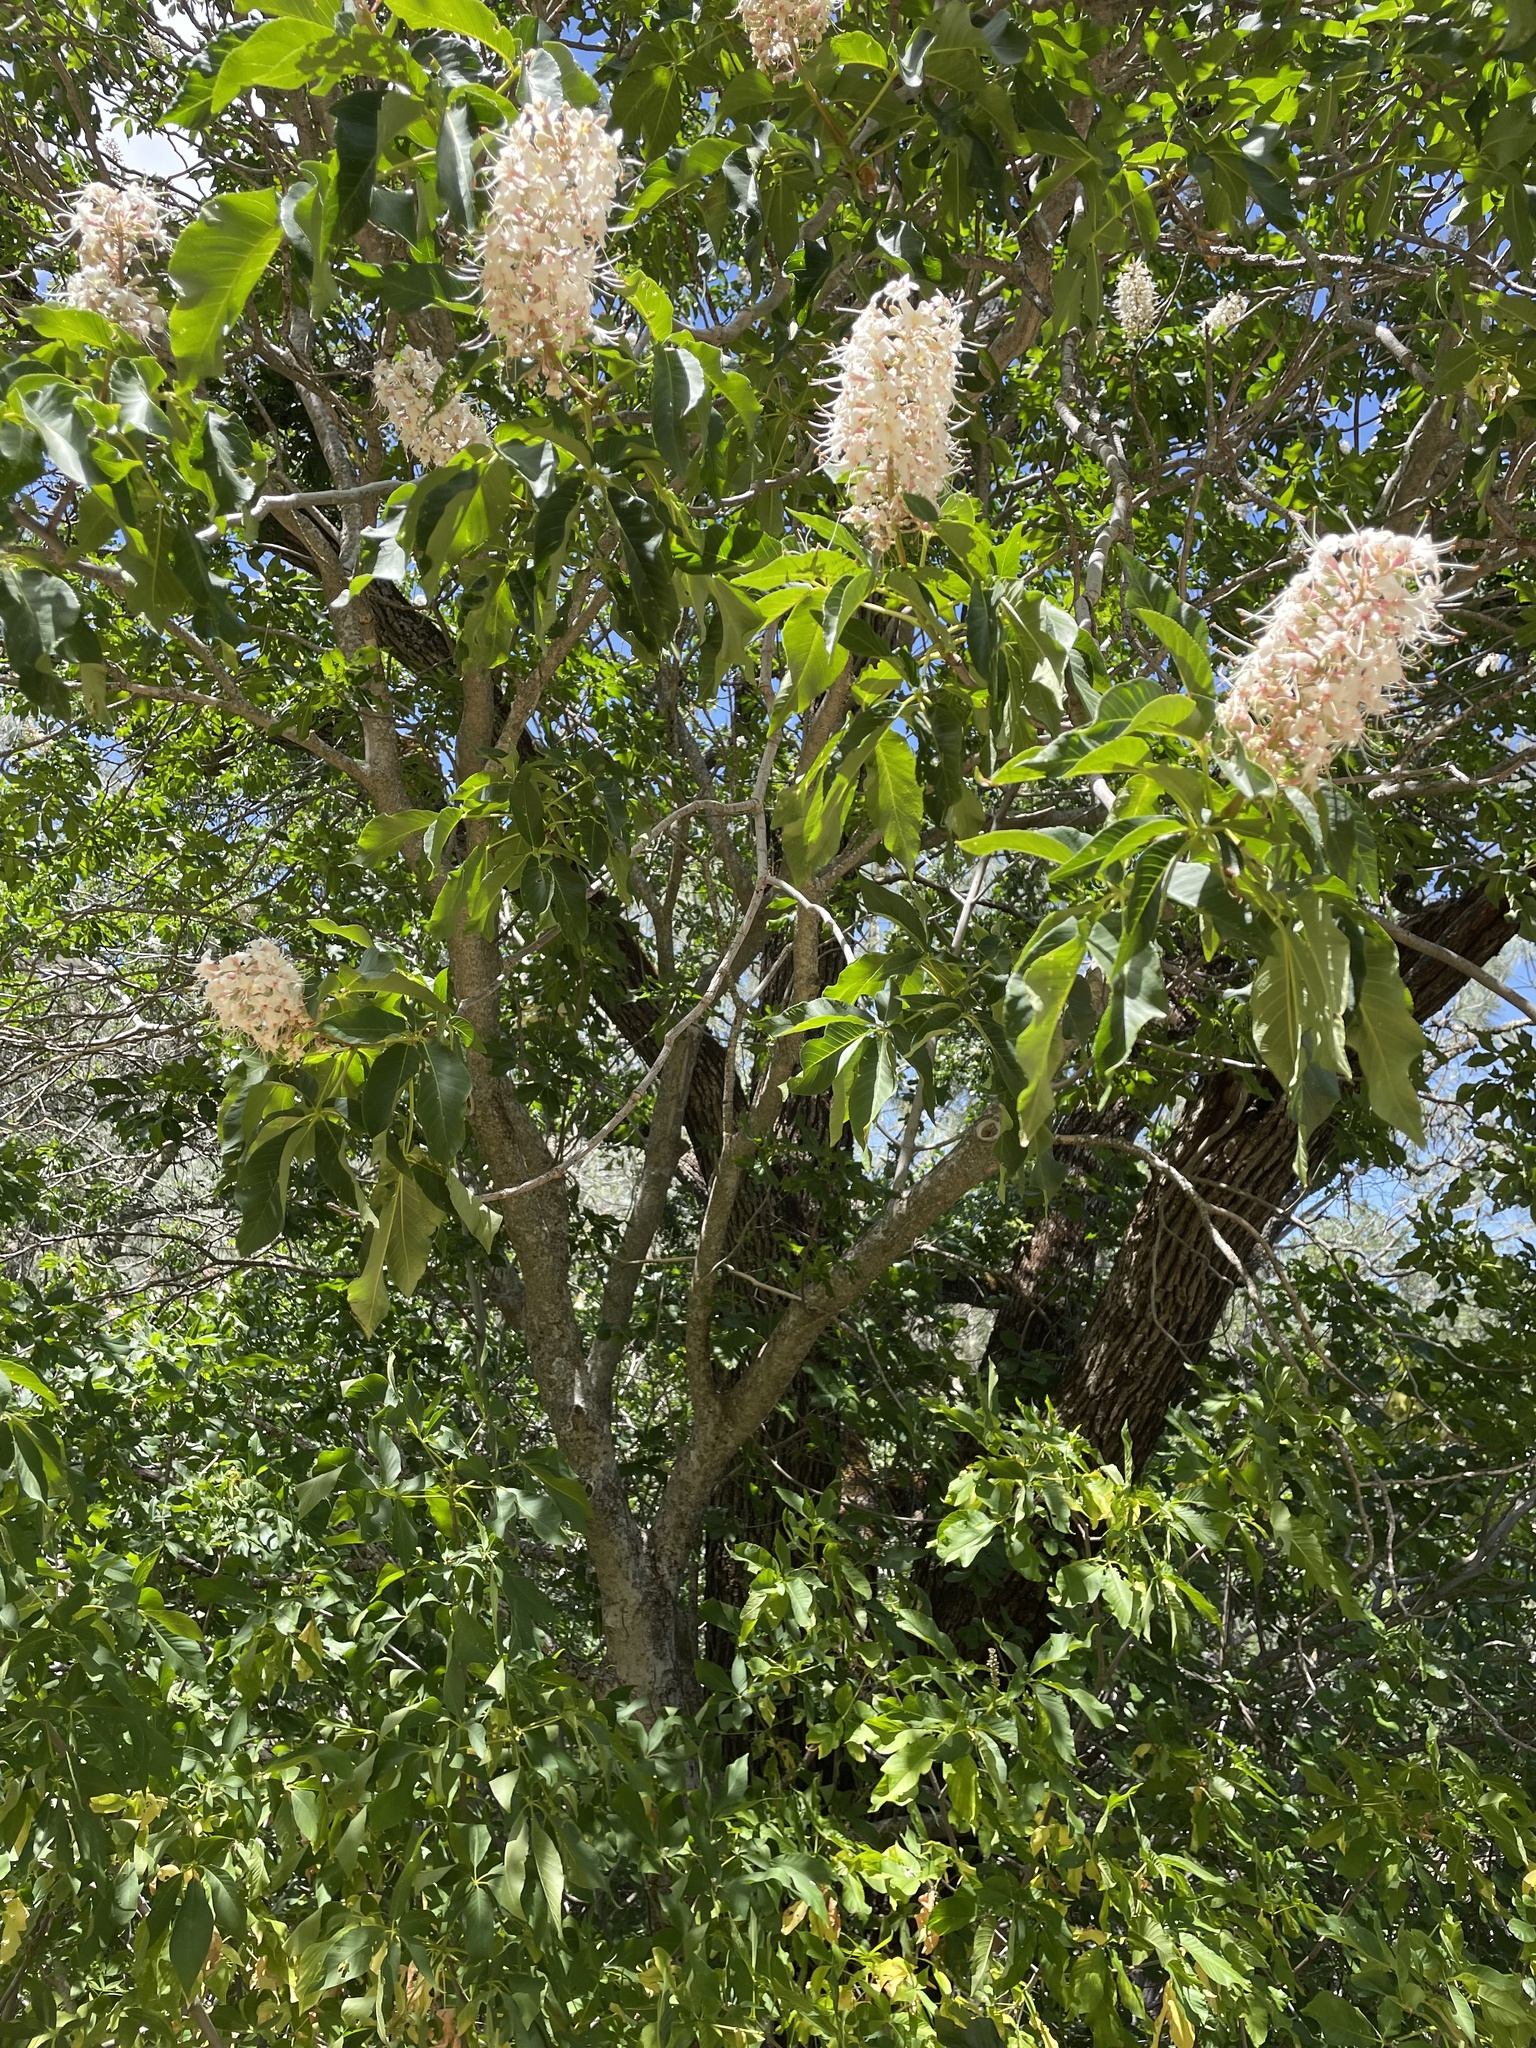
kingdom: Plantae
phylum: Tracheophyta
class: Magnoliopsida
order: Sapindales
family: Sapindaceae
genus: Aesculus
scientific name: Aesculus californica
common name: California buckeye
